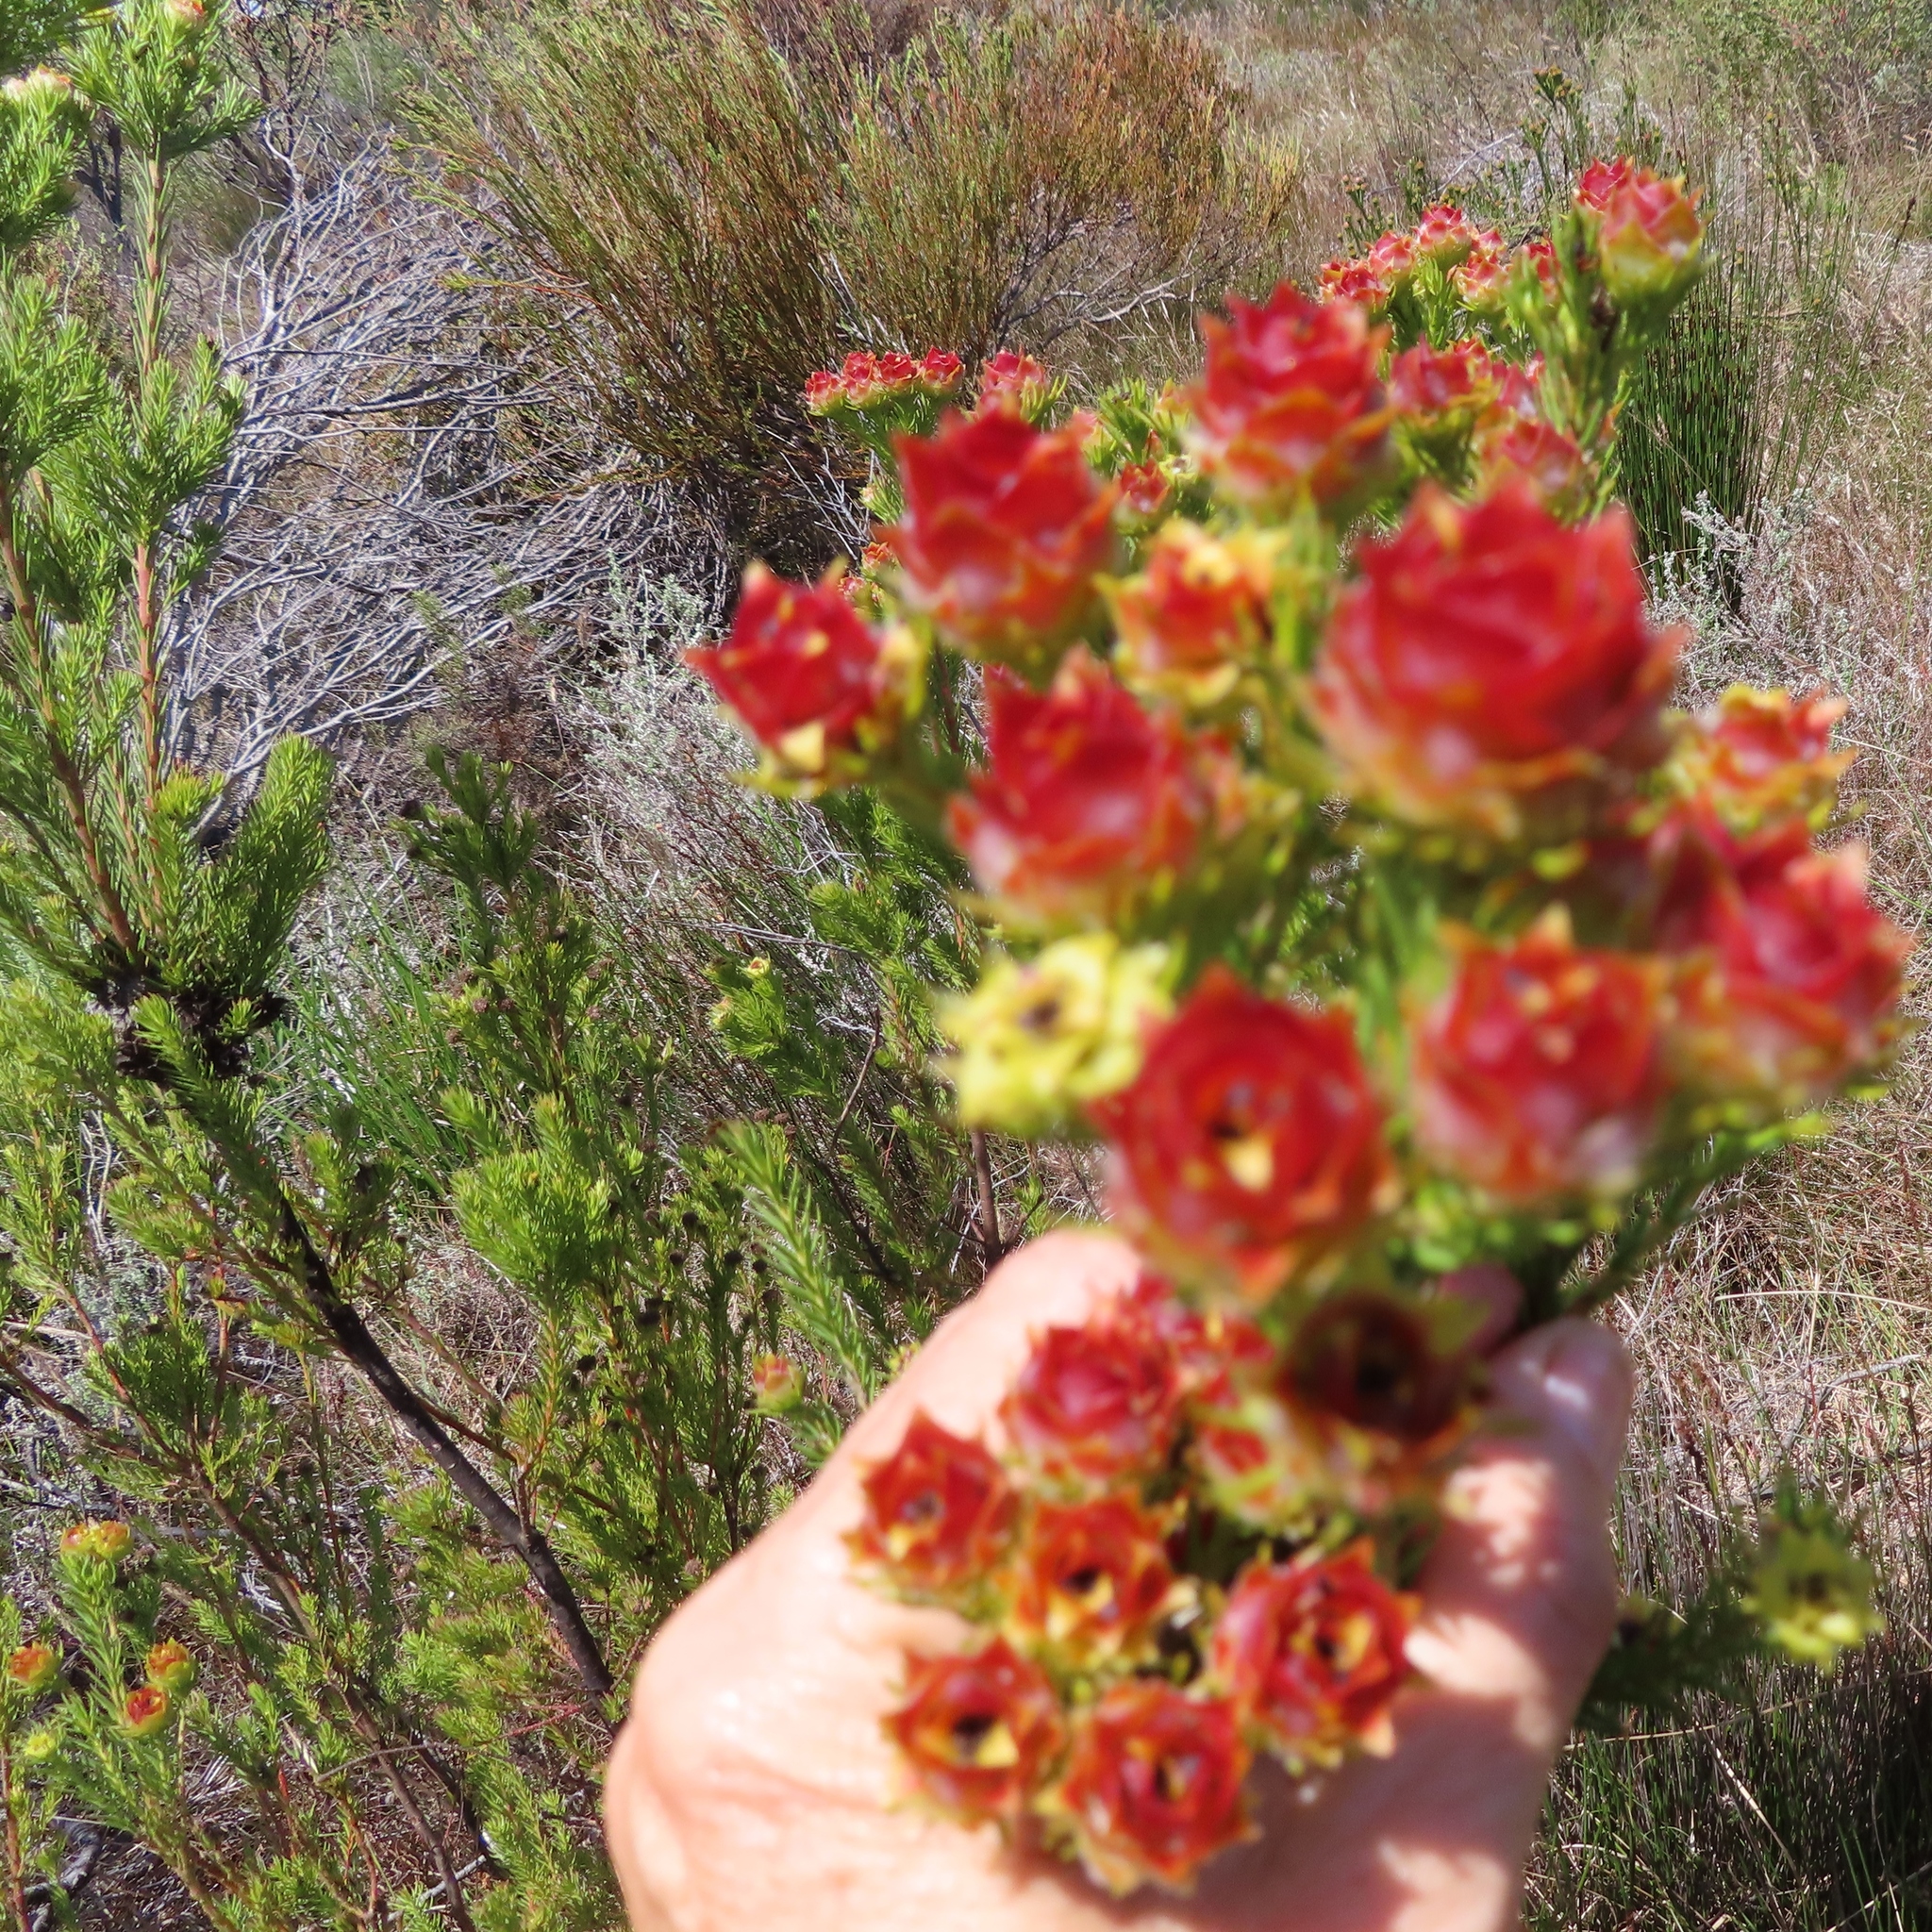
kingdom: Plantae
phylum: Tracheophyta
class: Magnoliopsida
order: Proteales
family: Proteaceae
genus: Leucadendron
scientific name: Leucadendron laxum
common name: Bredasdorp conebush
